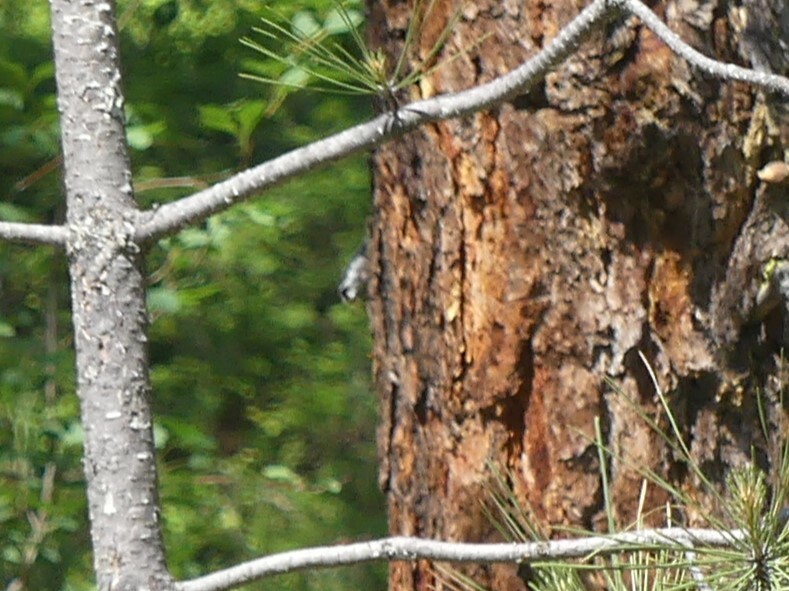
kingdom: Animalia
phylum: Chordata
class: Aves
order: Passeriformes
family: Sittidae
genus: Sitta
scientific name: Sitta carolinensis
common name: White-breasted nuthatch
